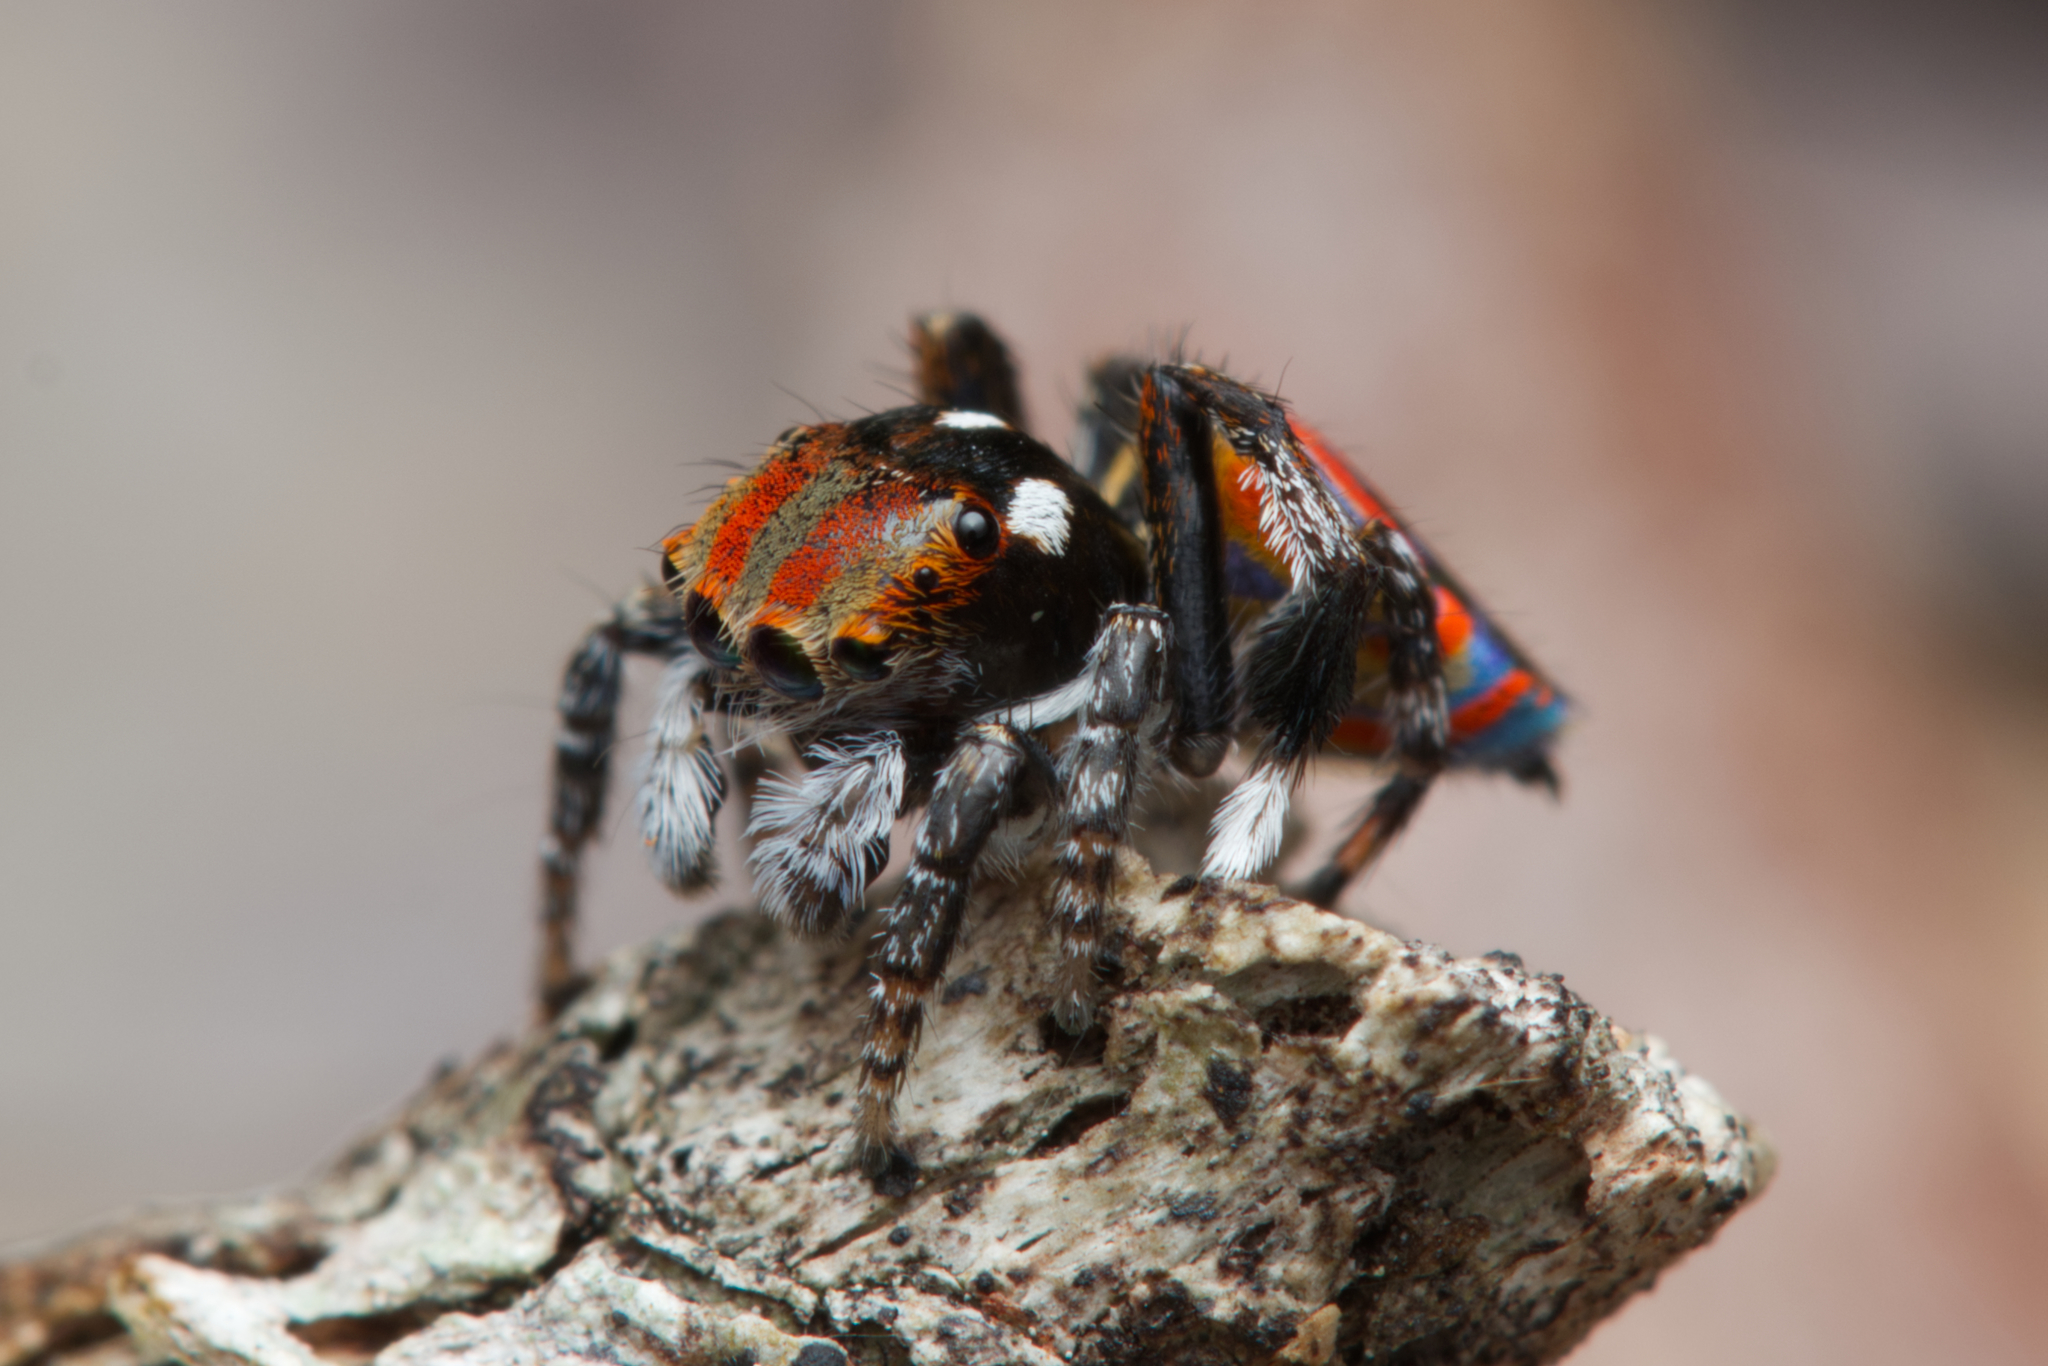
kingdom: Animalia
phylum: Arthropoda
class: Arachnida
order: Araneae
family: Salticidae
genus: Maratus
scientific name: Maratus volans
